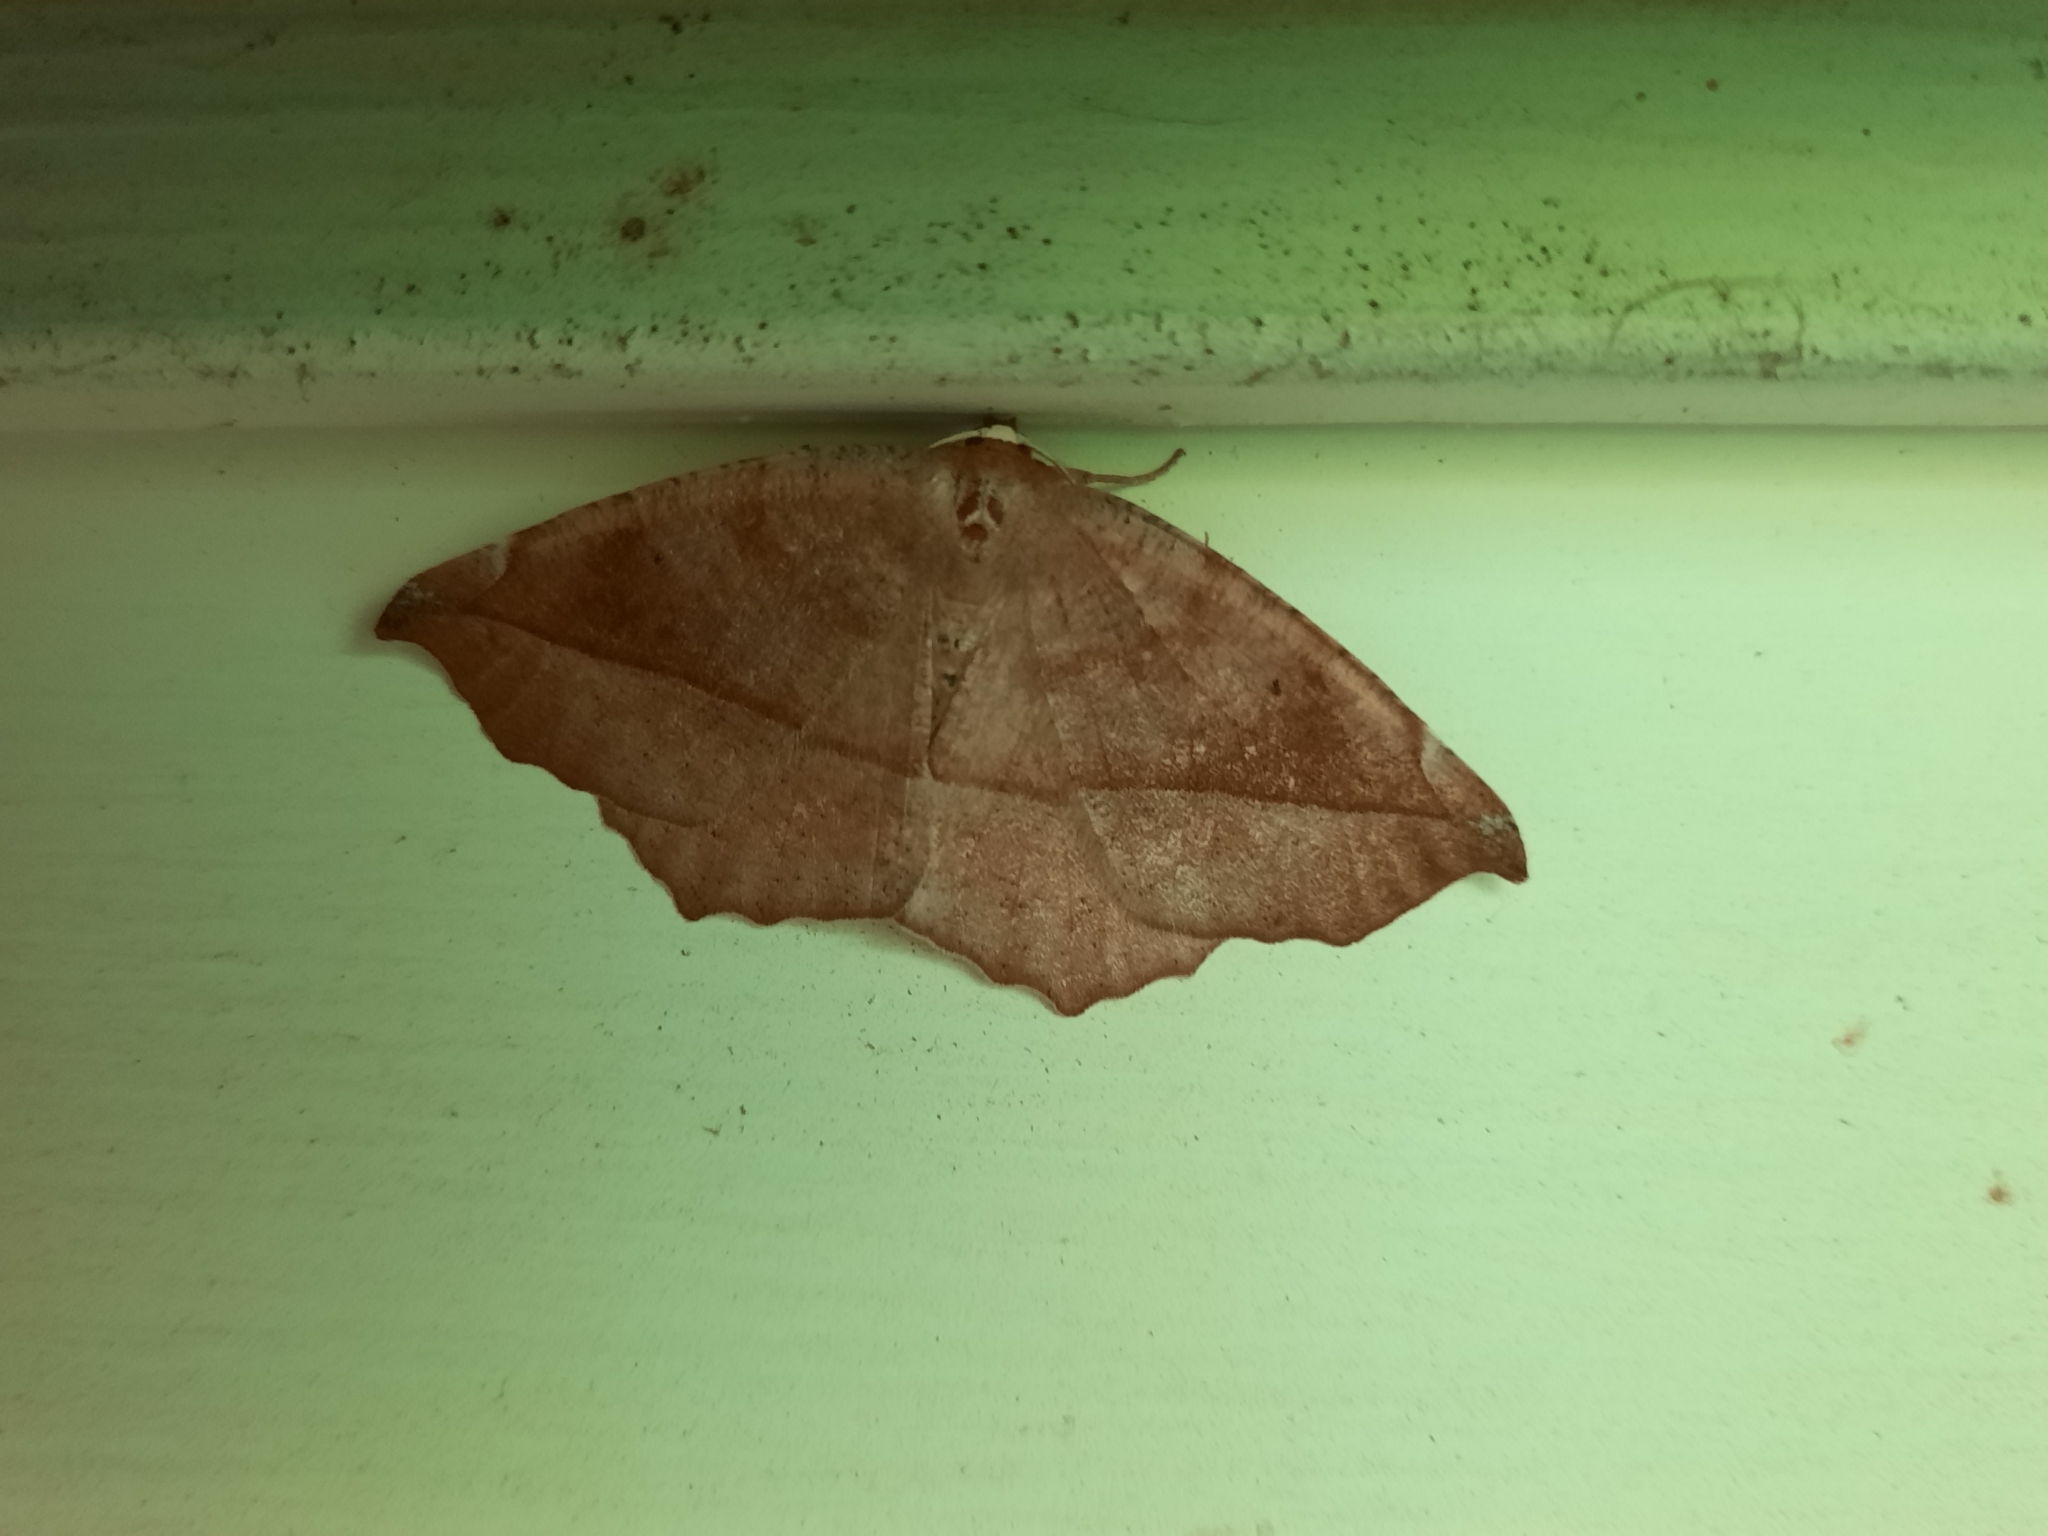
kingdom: Animalia
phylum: Arthropoda
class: Insecta
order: Lepidoptera
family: Geometridae
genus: Eutrapela
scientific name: Eutrapela clemataria
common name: Curved-toothed geometer
